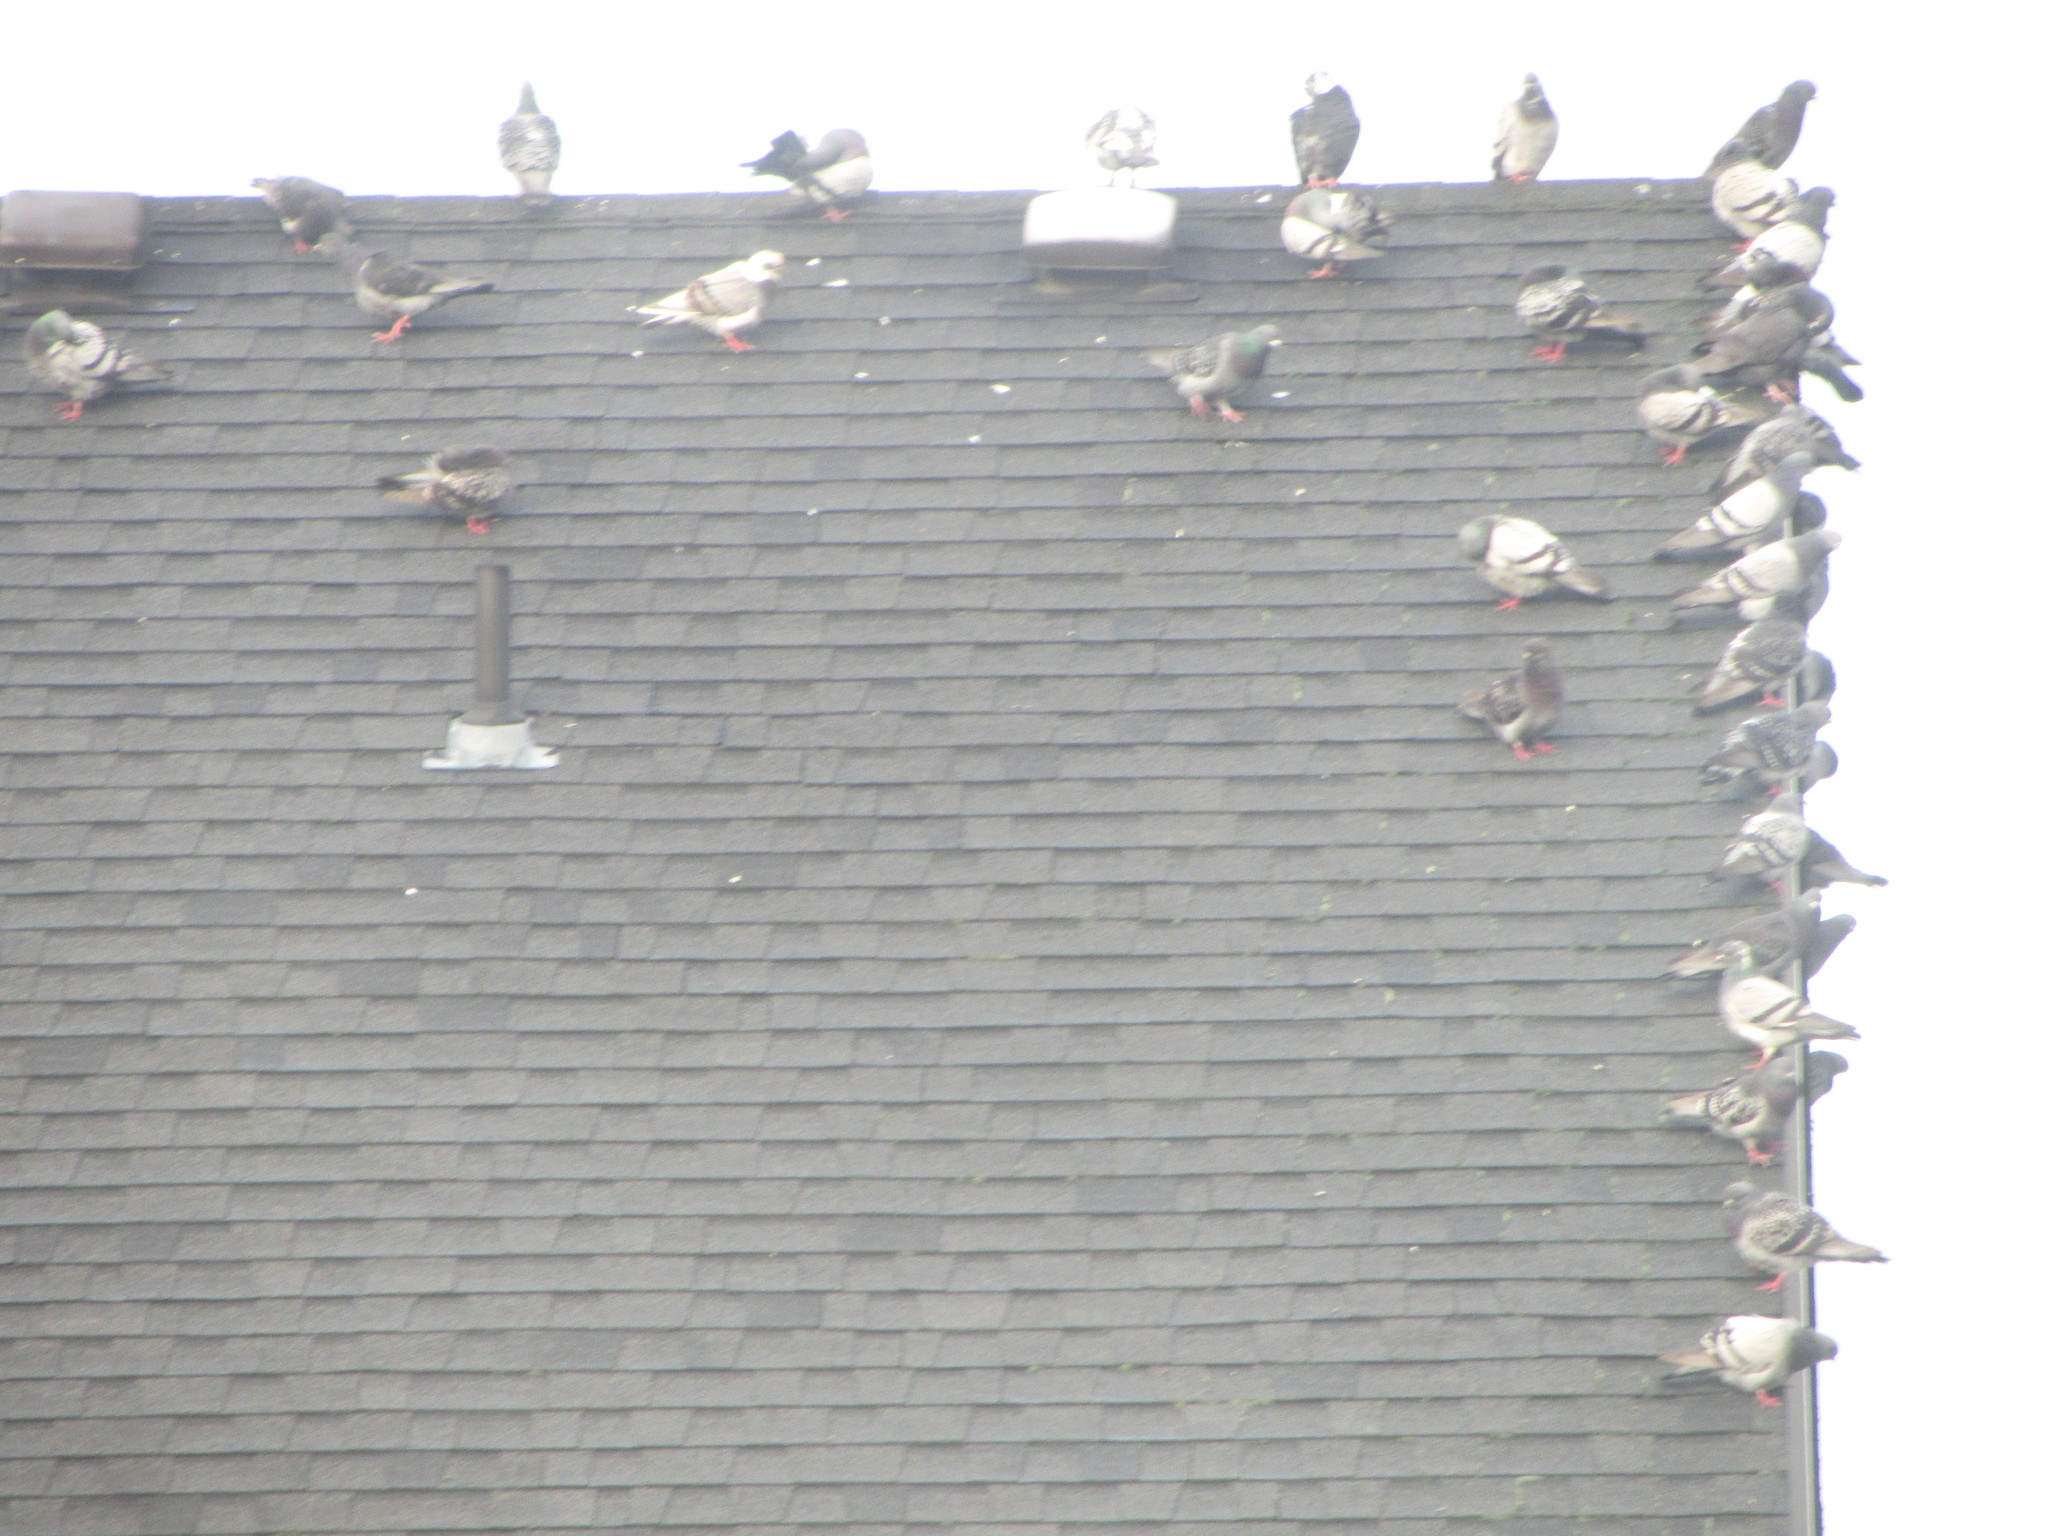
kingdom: Animalia
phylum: Chordata
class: Aves
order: Columbiformes
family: Columbidae
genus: Columba
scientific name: Columba livia
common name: Rock pigeon
